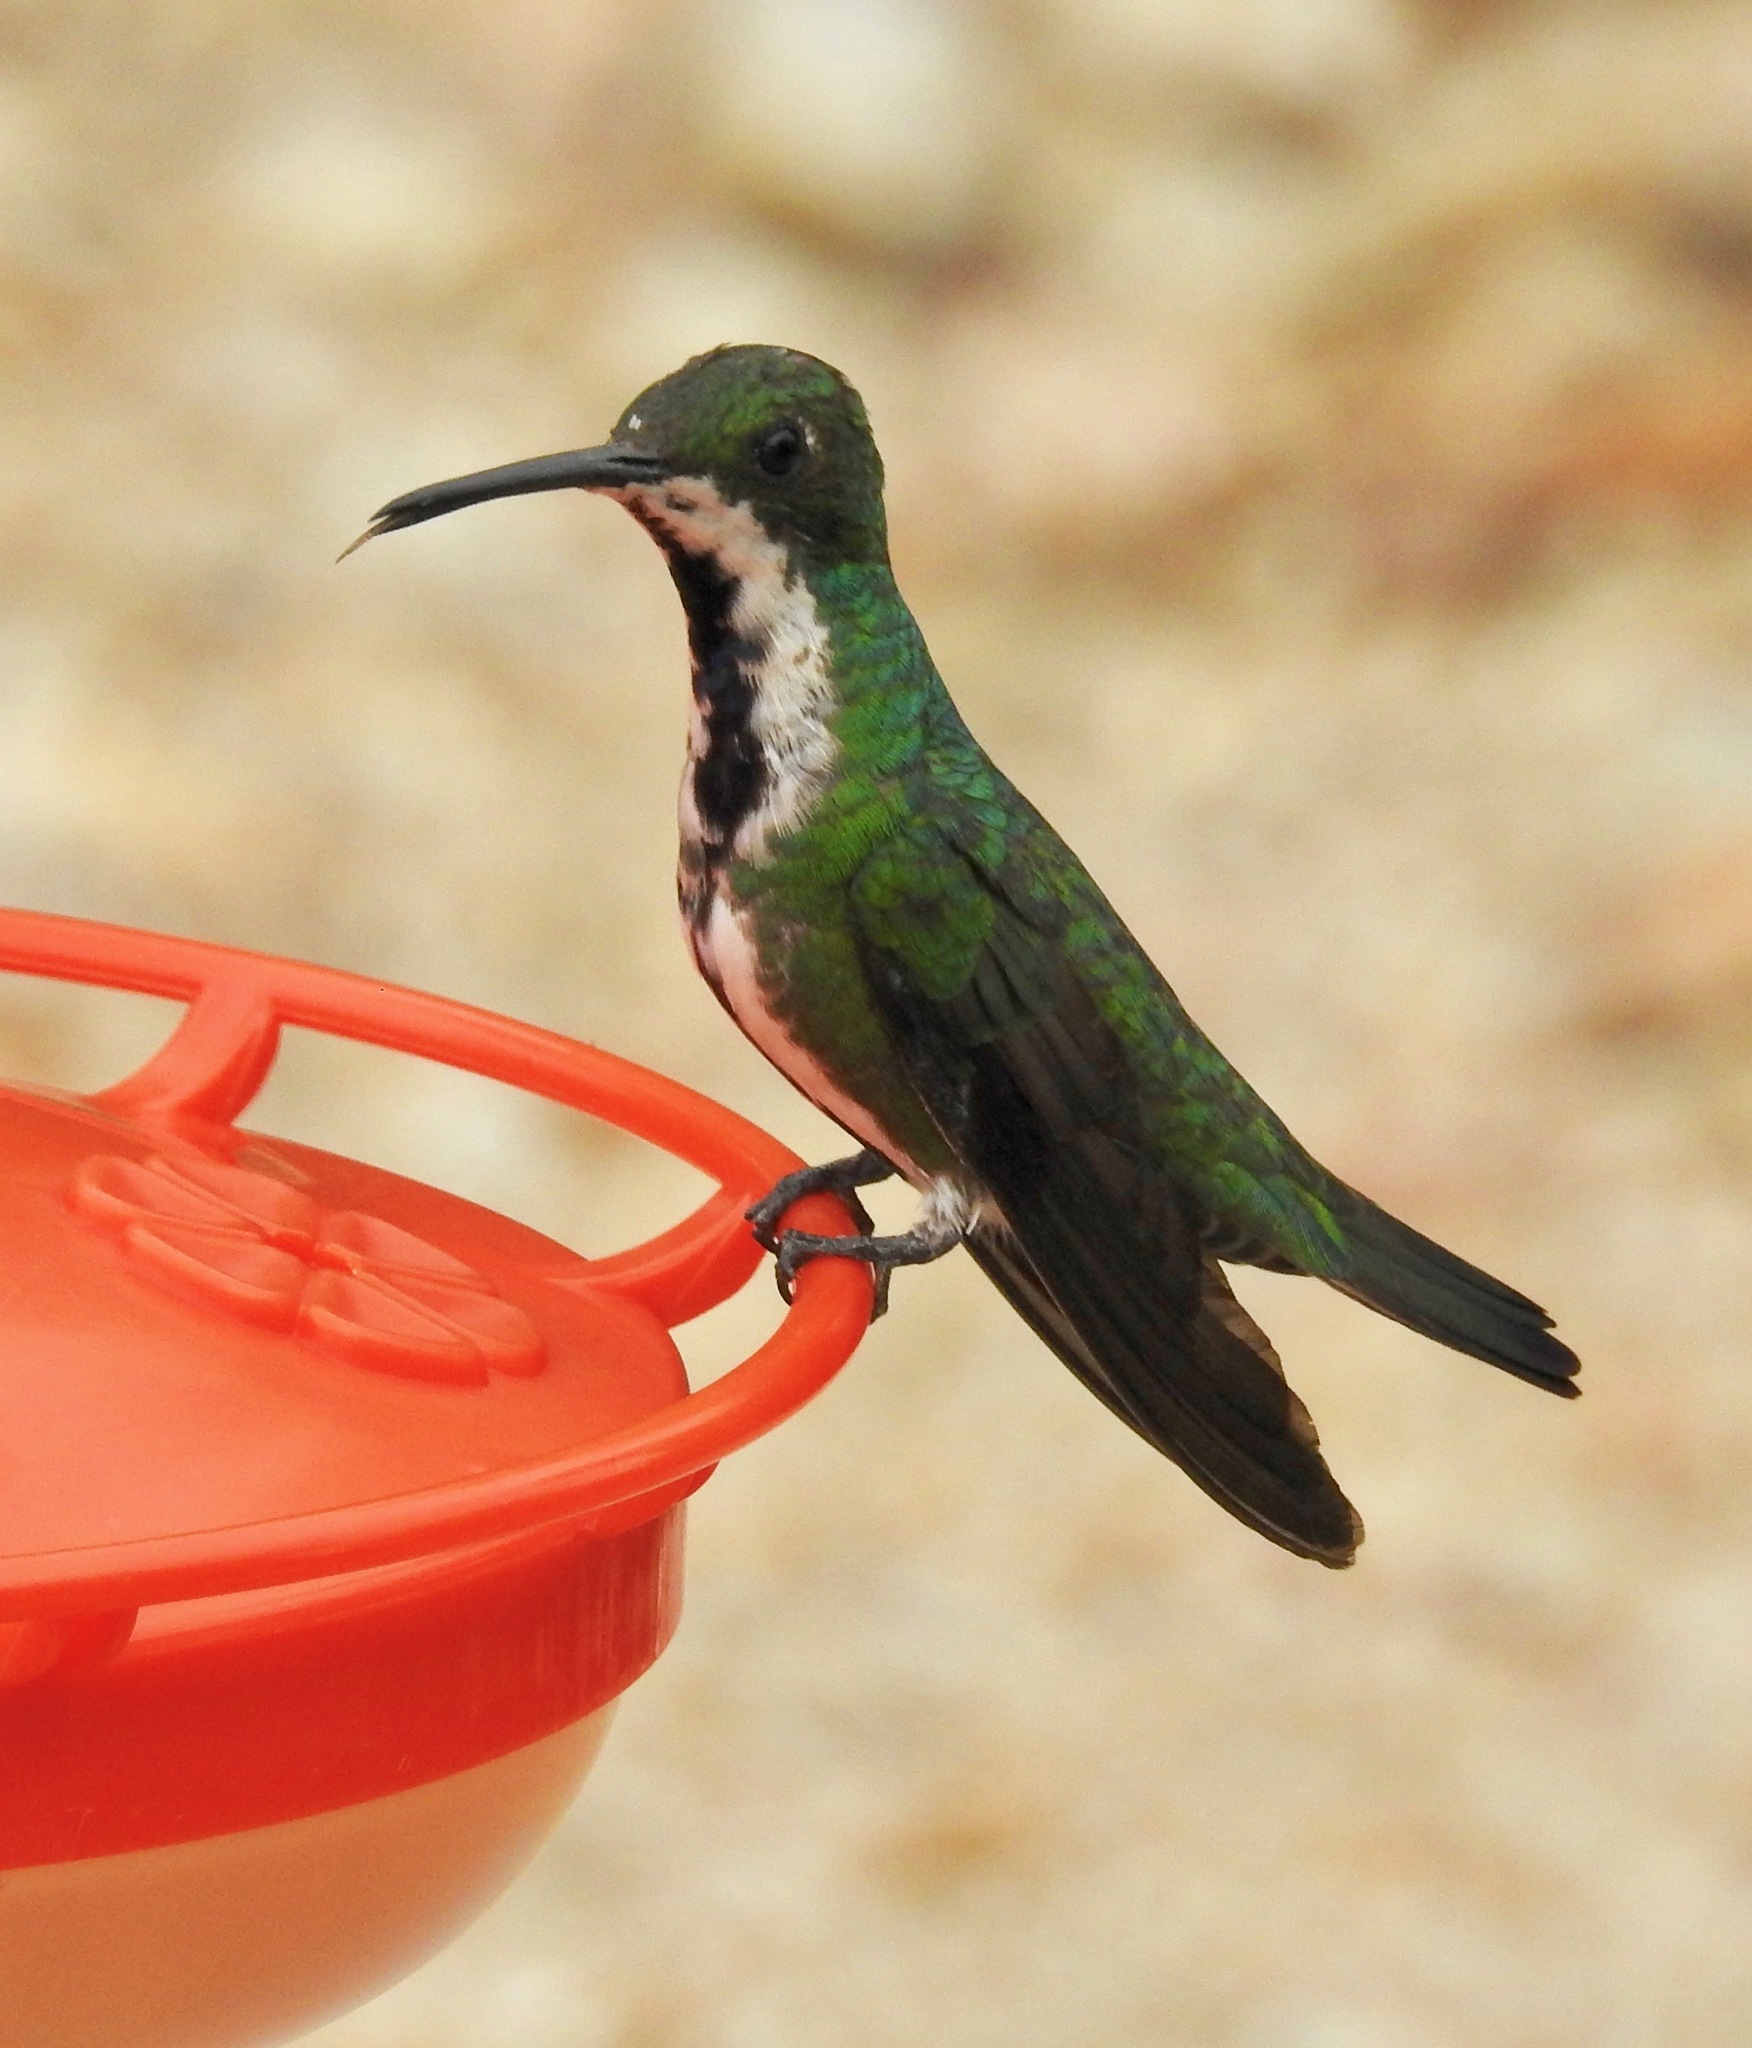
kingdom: Animalia
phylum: Chordata
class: Aves
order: Apodiformes
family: Trochilidae
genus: Anthracothorax
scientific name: Anthracothorax nigricollis
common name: Black-throated mango
